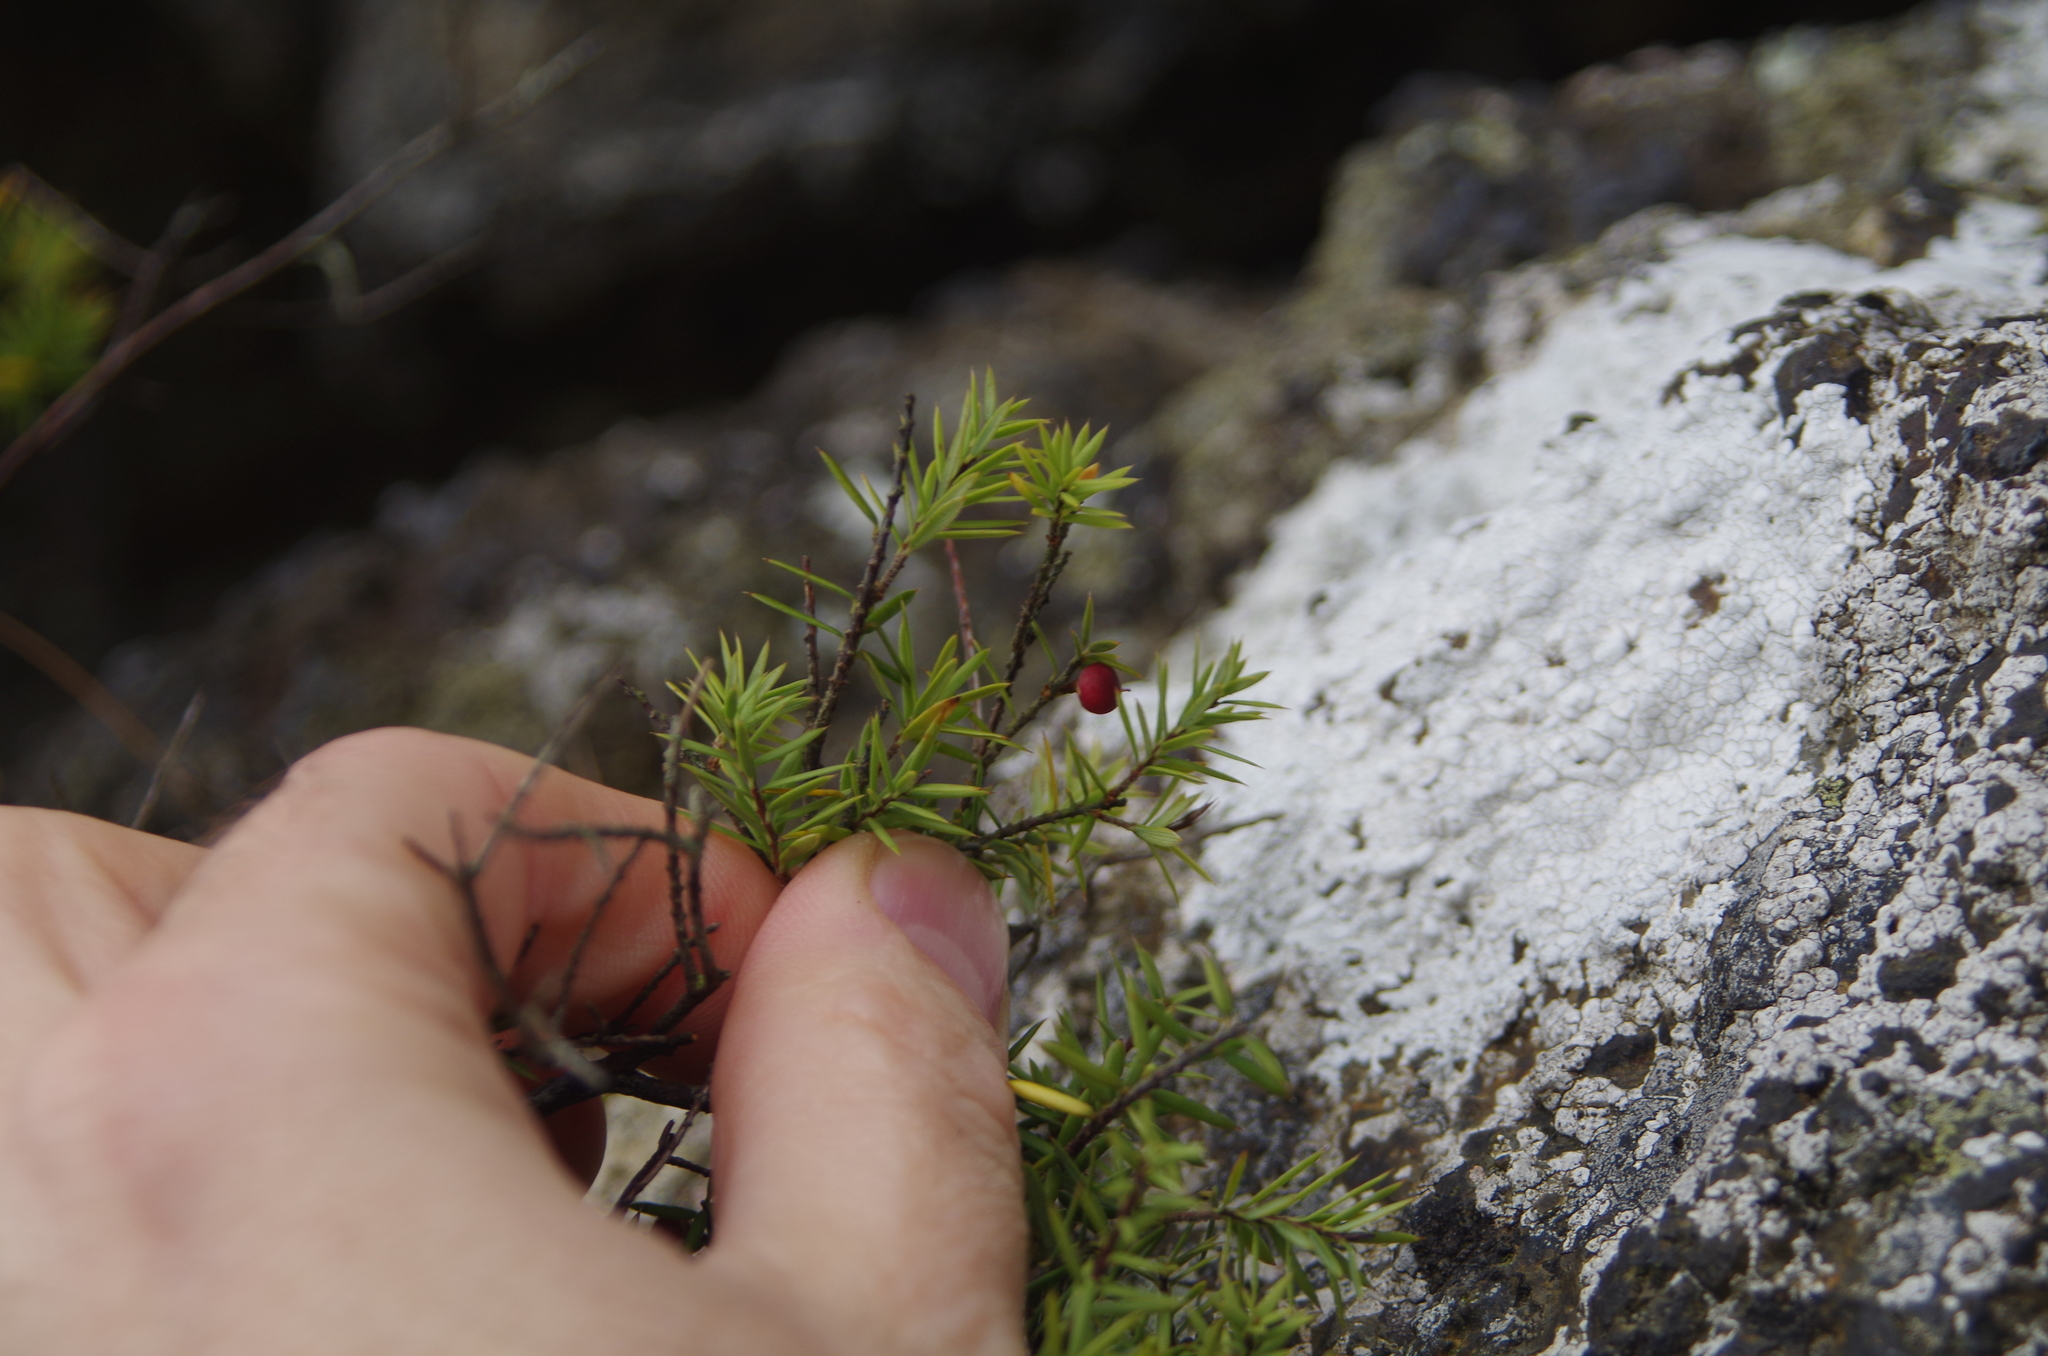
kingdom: Plantae
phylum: Tracheophyta
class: Magnoliopsida
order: Ericales
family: Ericaceae
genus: Leptecophylla
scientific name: Leptecophylla juniperina
